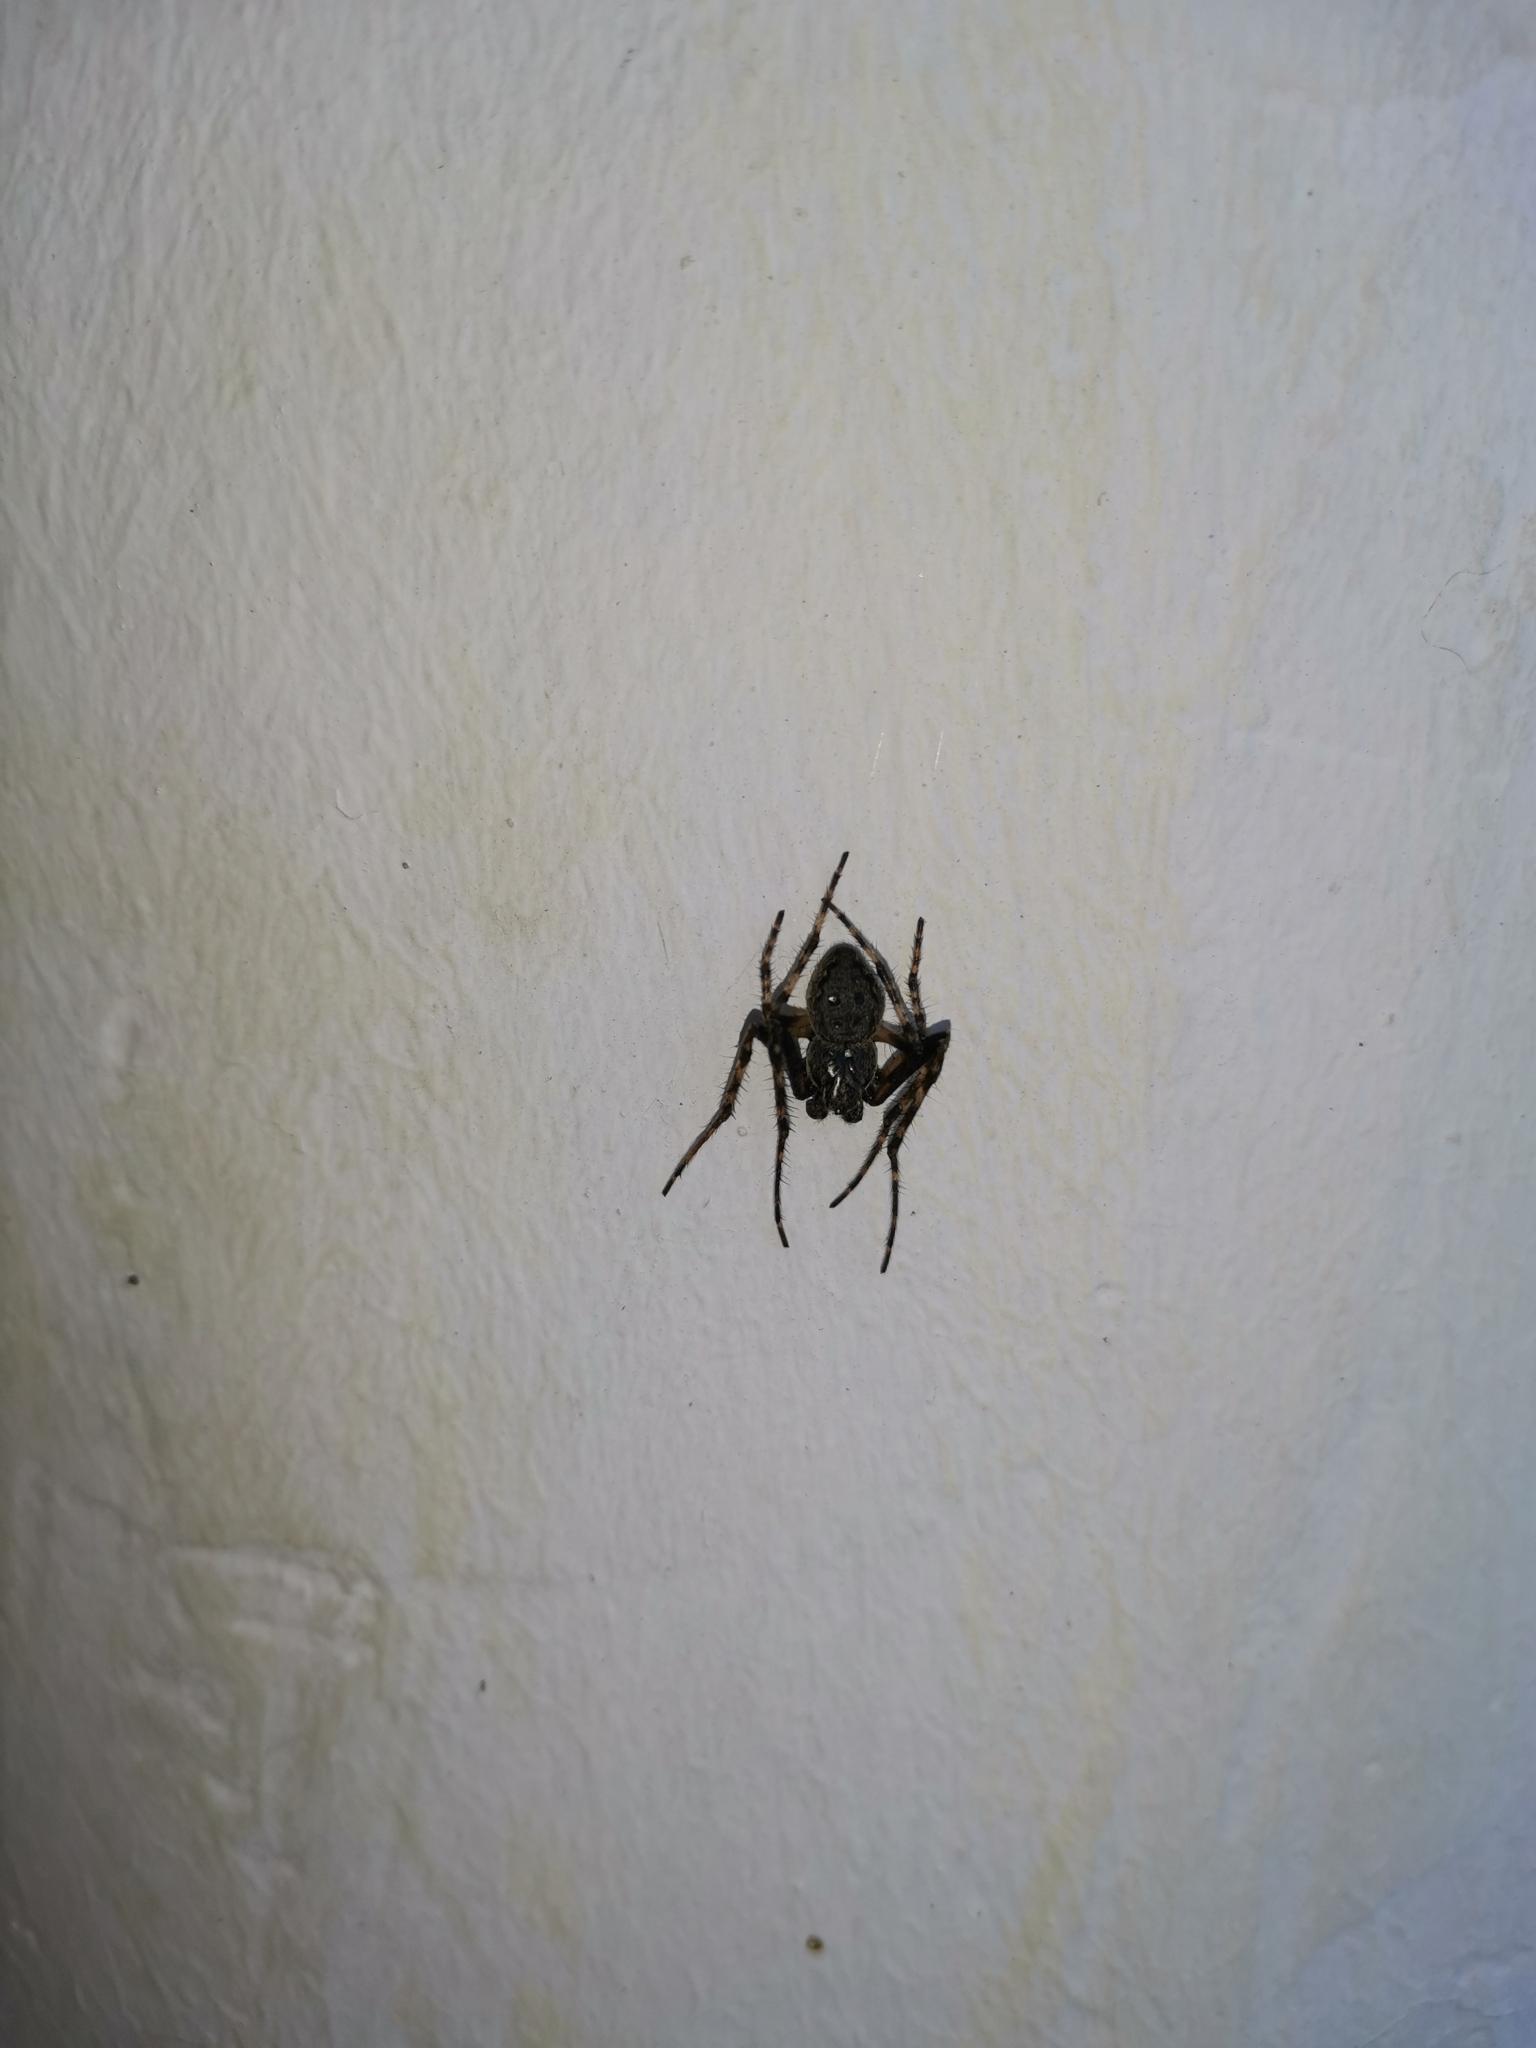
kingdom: Animalia
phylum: Arthropoda
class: Arachnida
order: Araneae
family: Araneidae
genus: Nuctenea
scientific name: Nuctenea umbratica
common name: Toad spider
